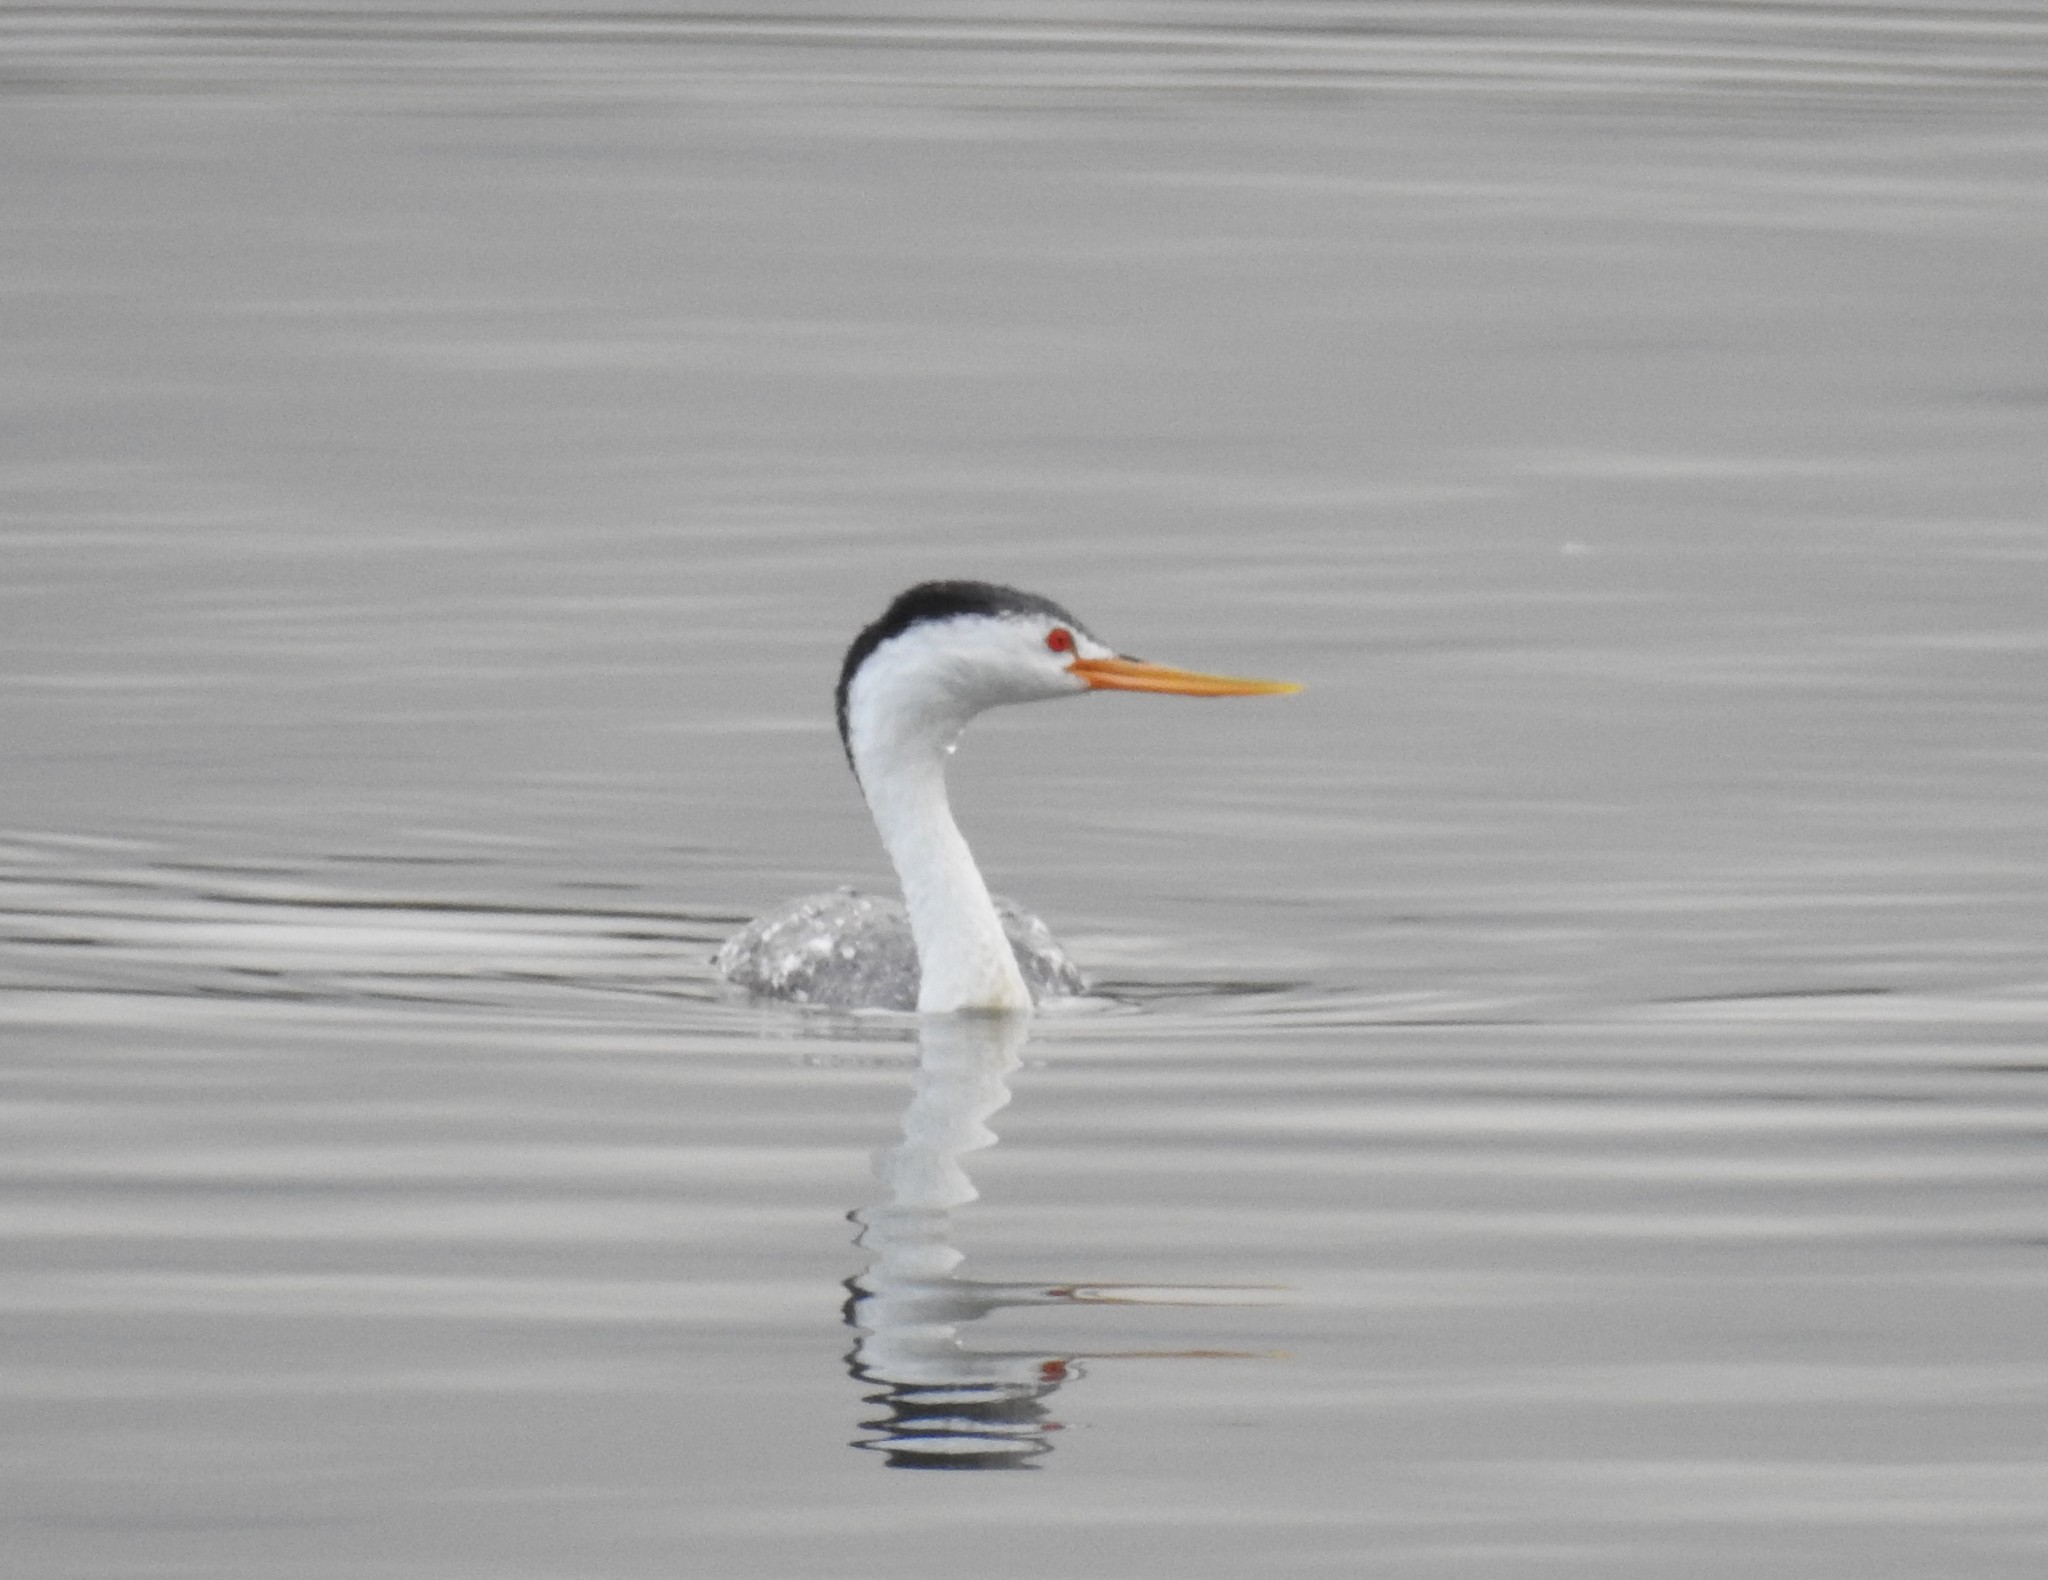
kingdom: Animalia
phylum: Chordata
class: Aves
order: Podicipediformes
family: Podicipedidae
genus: Aechmophorus
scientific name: Aechmophorus clarkii
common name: Clark's grebe
